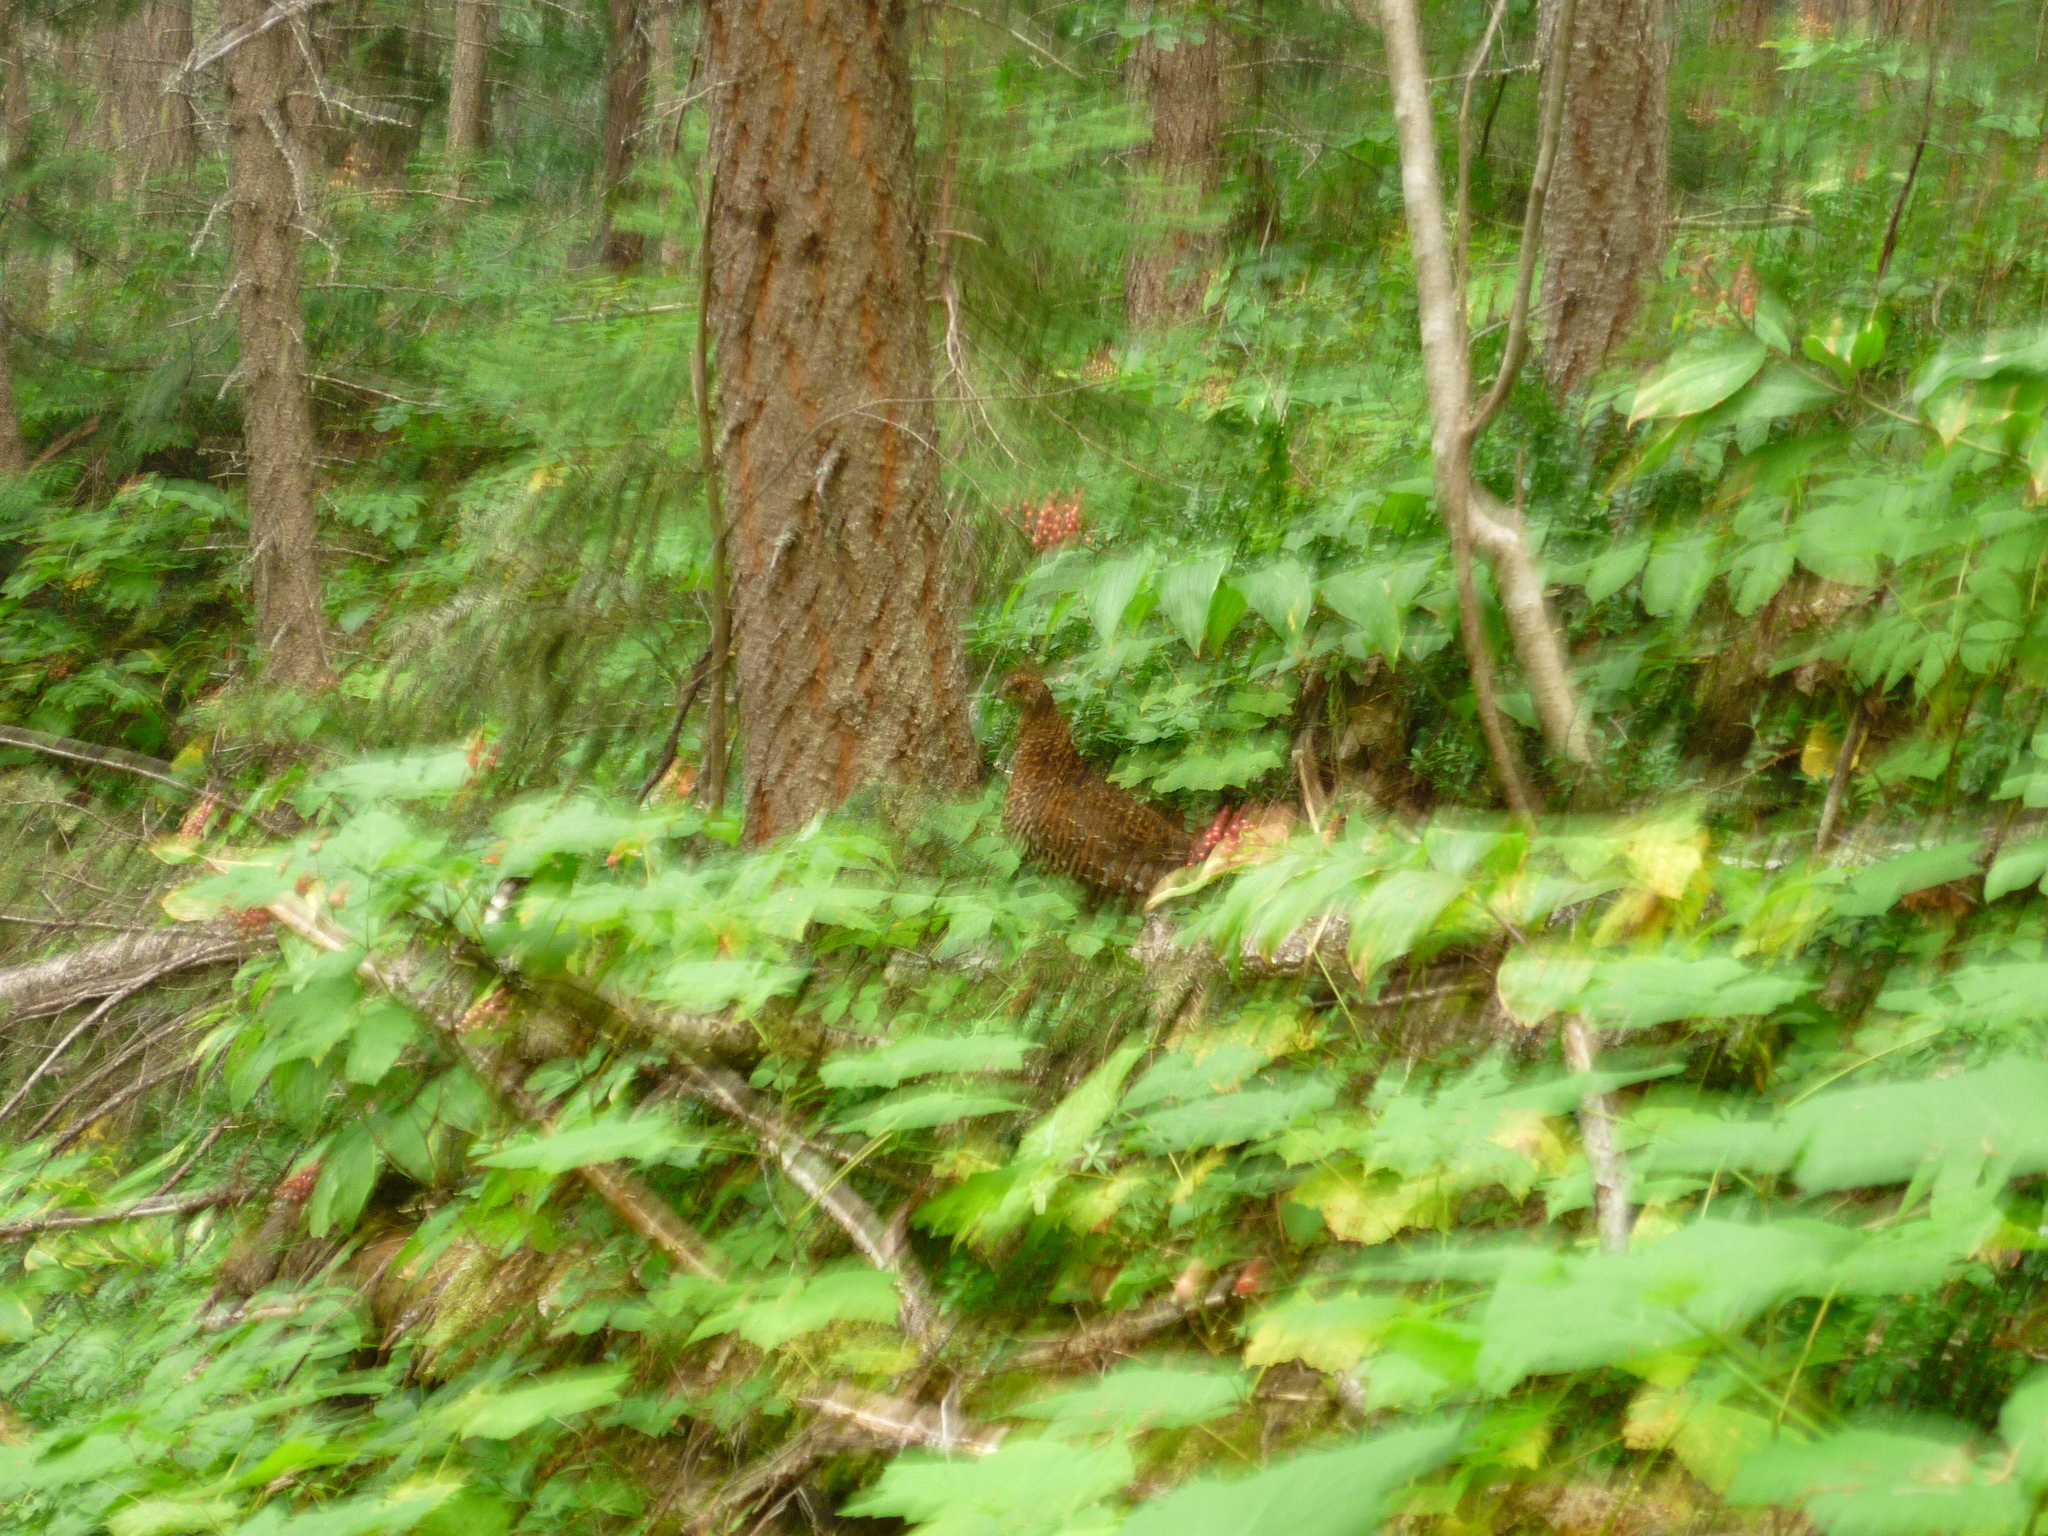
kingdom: Animalia
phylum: Chordata
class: Aves
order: Galliformes
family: Phasianidae
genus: Canachites
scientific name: Canachites canadensis
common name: Spruce grouse
